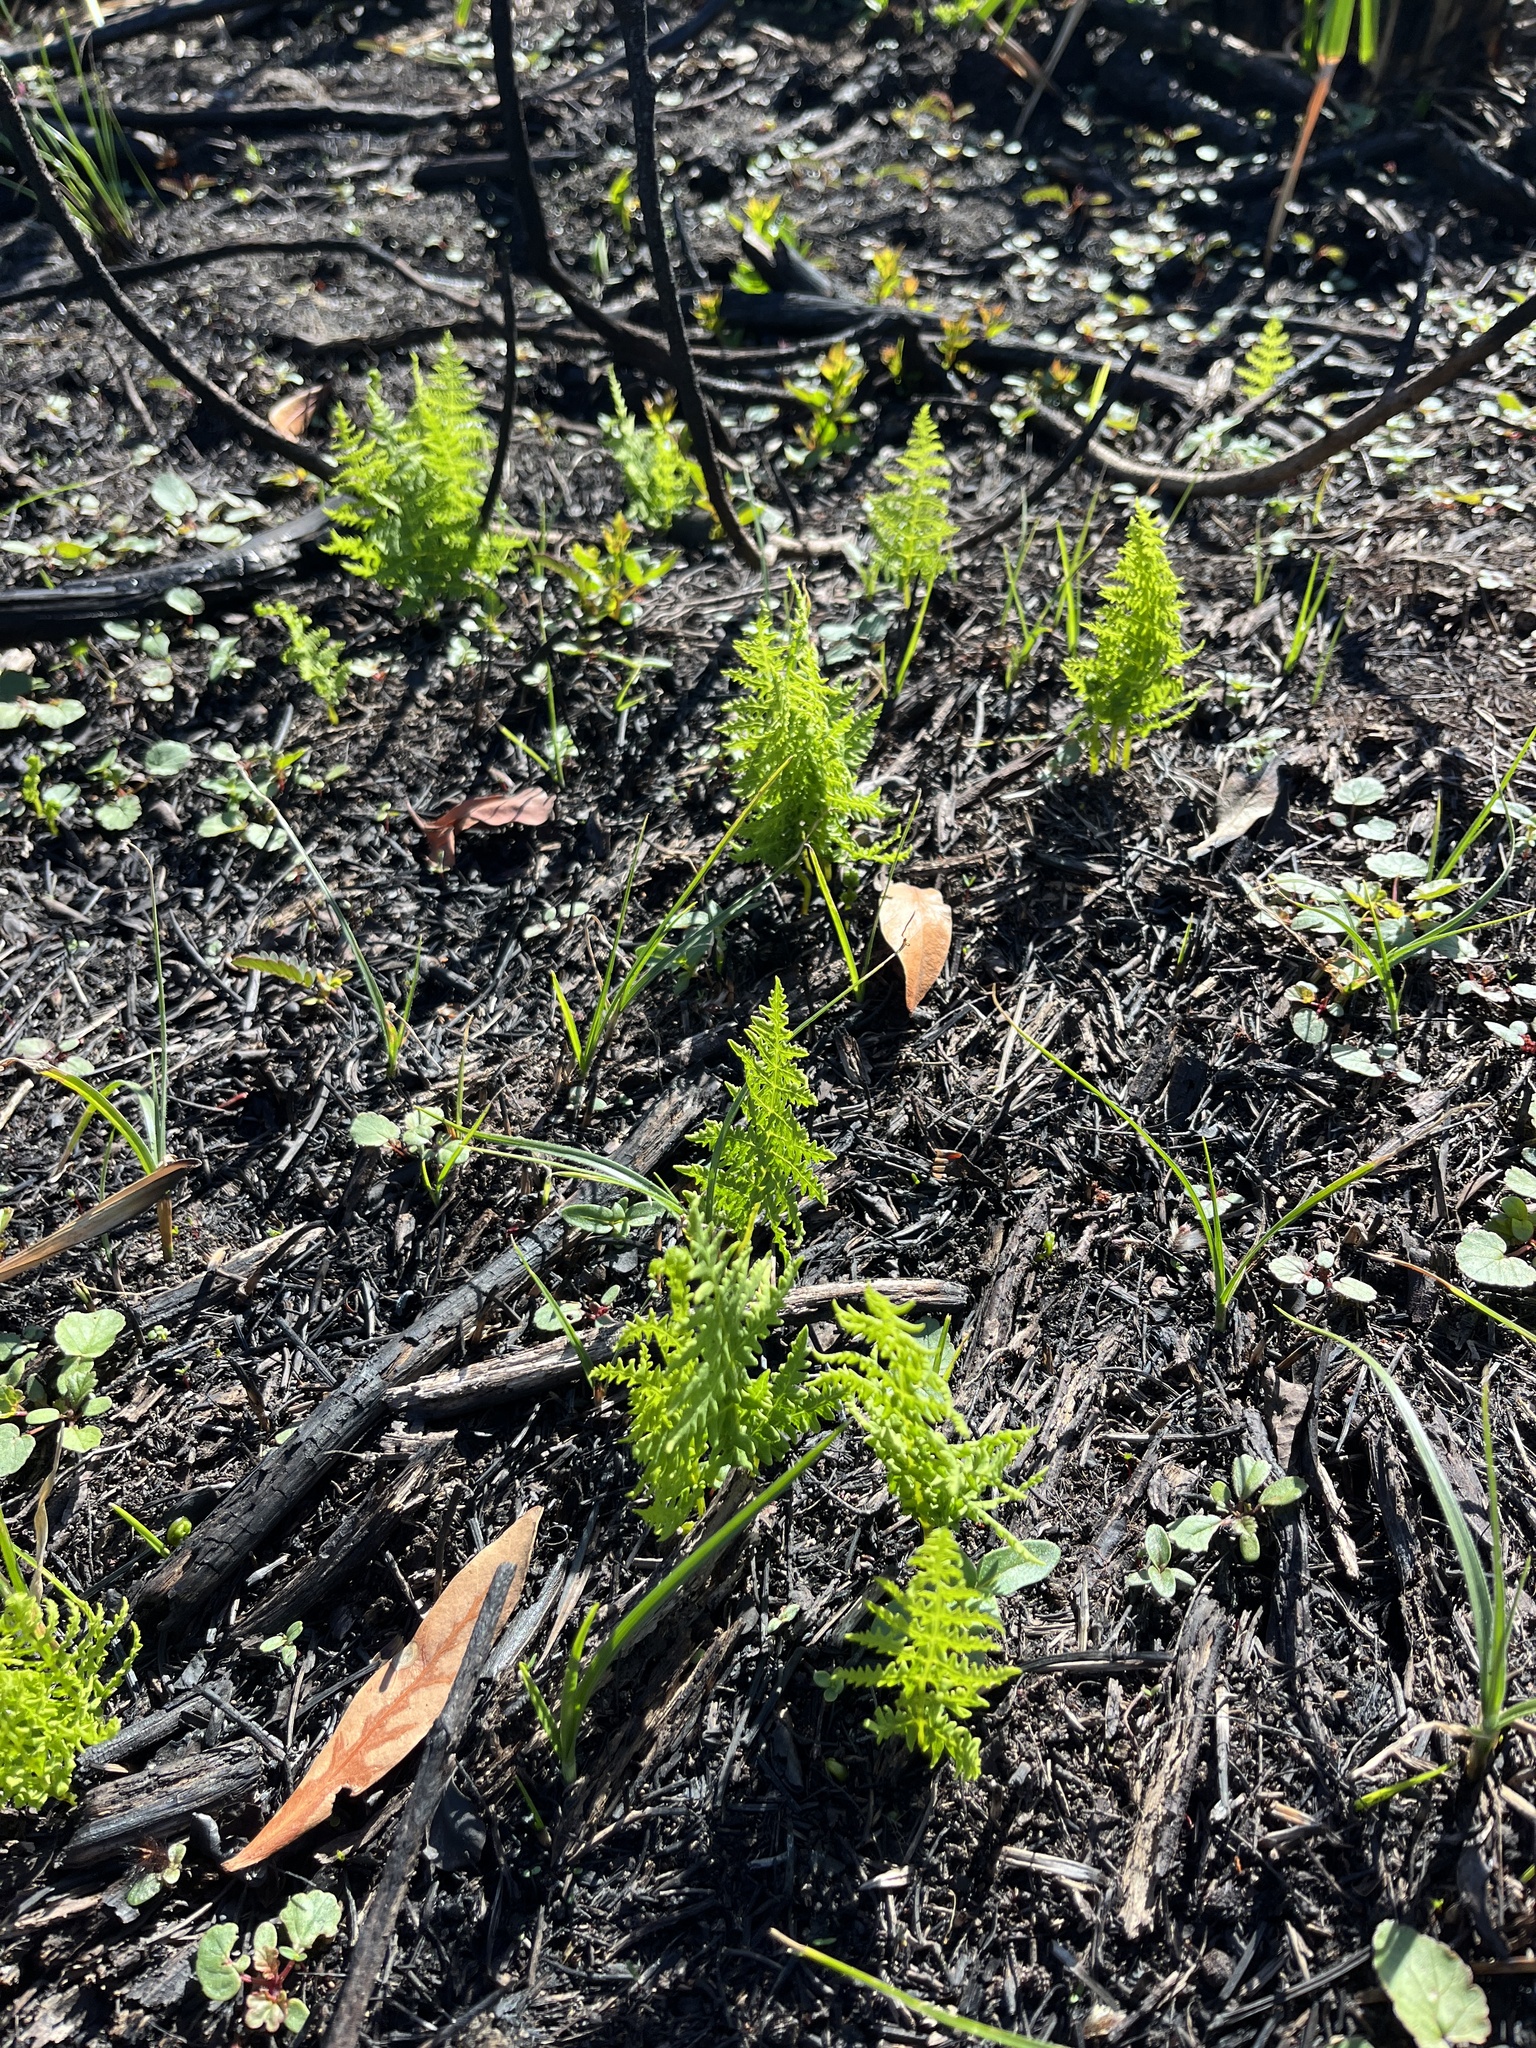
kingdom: Plantae
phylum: Tracheophyta
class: Polypodiopsida
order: Polypodiales
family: Thelypteridaceae
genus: Thelypteris
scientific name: Thelypteris confluens
